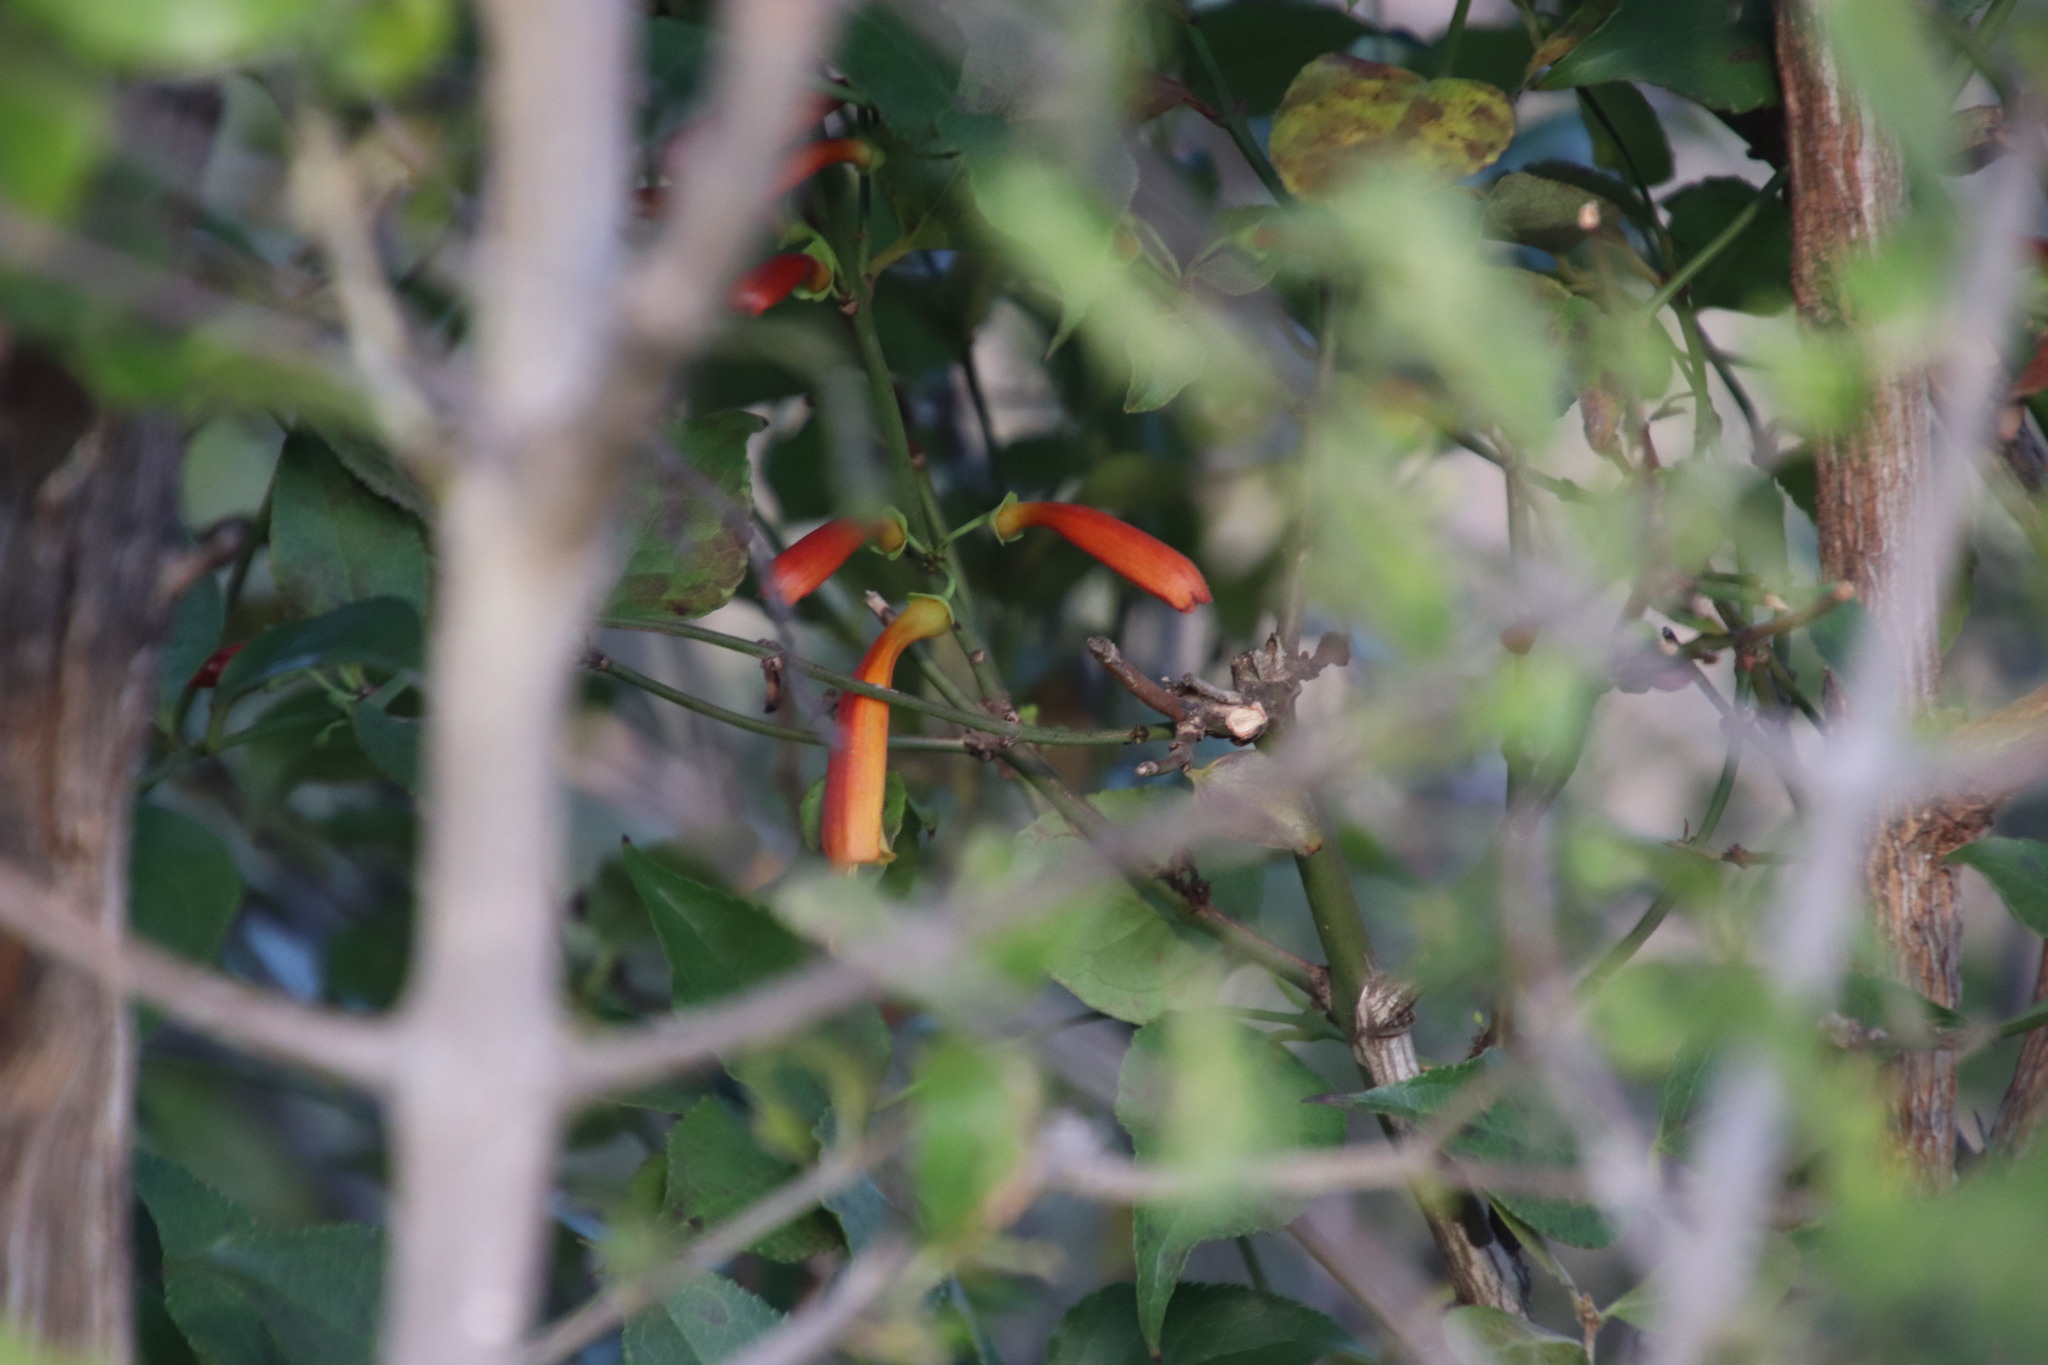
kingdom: Plantae
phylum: Tracheophyta
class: Magnoliopsida
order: Lamiales
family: Stilbaceae
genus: Halleria
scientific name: Halleria lucida
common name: Tree fuschia
